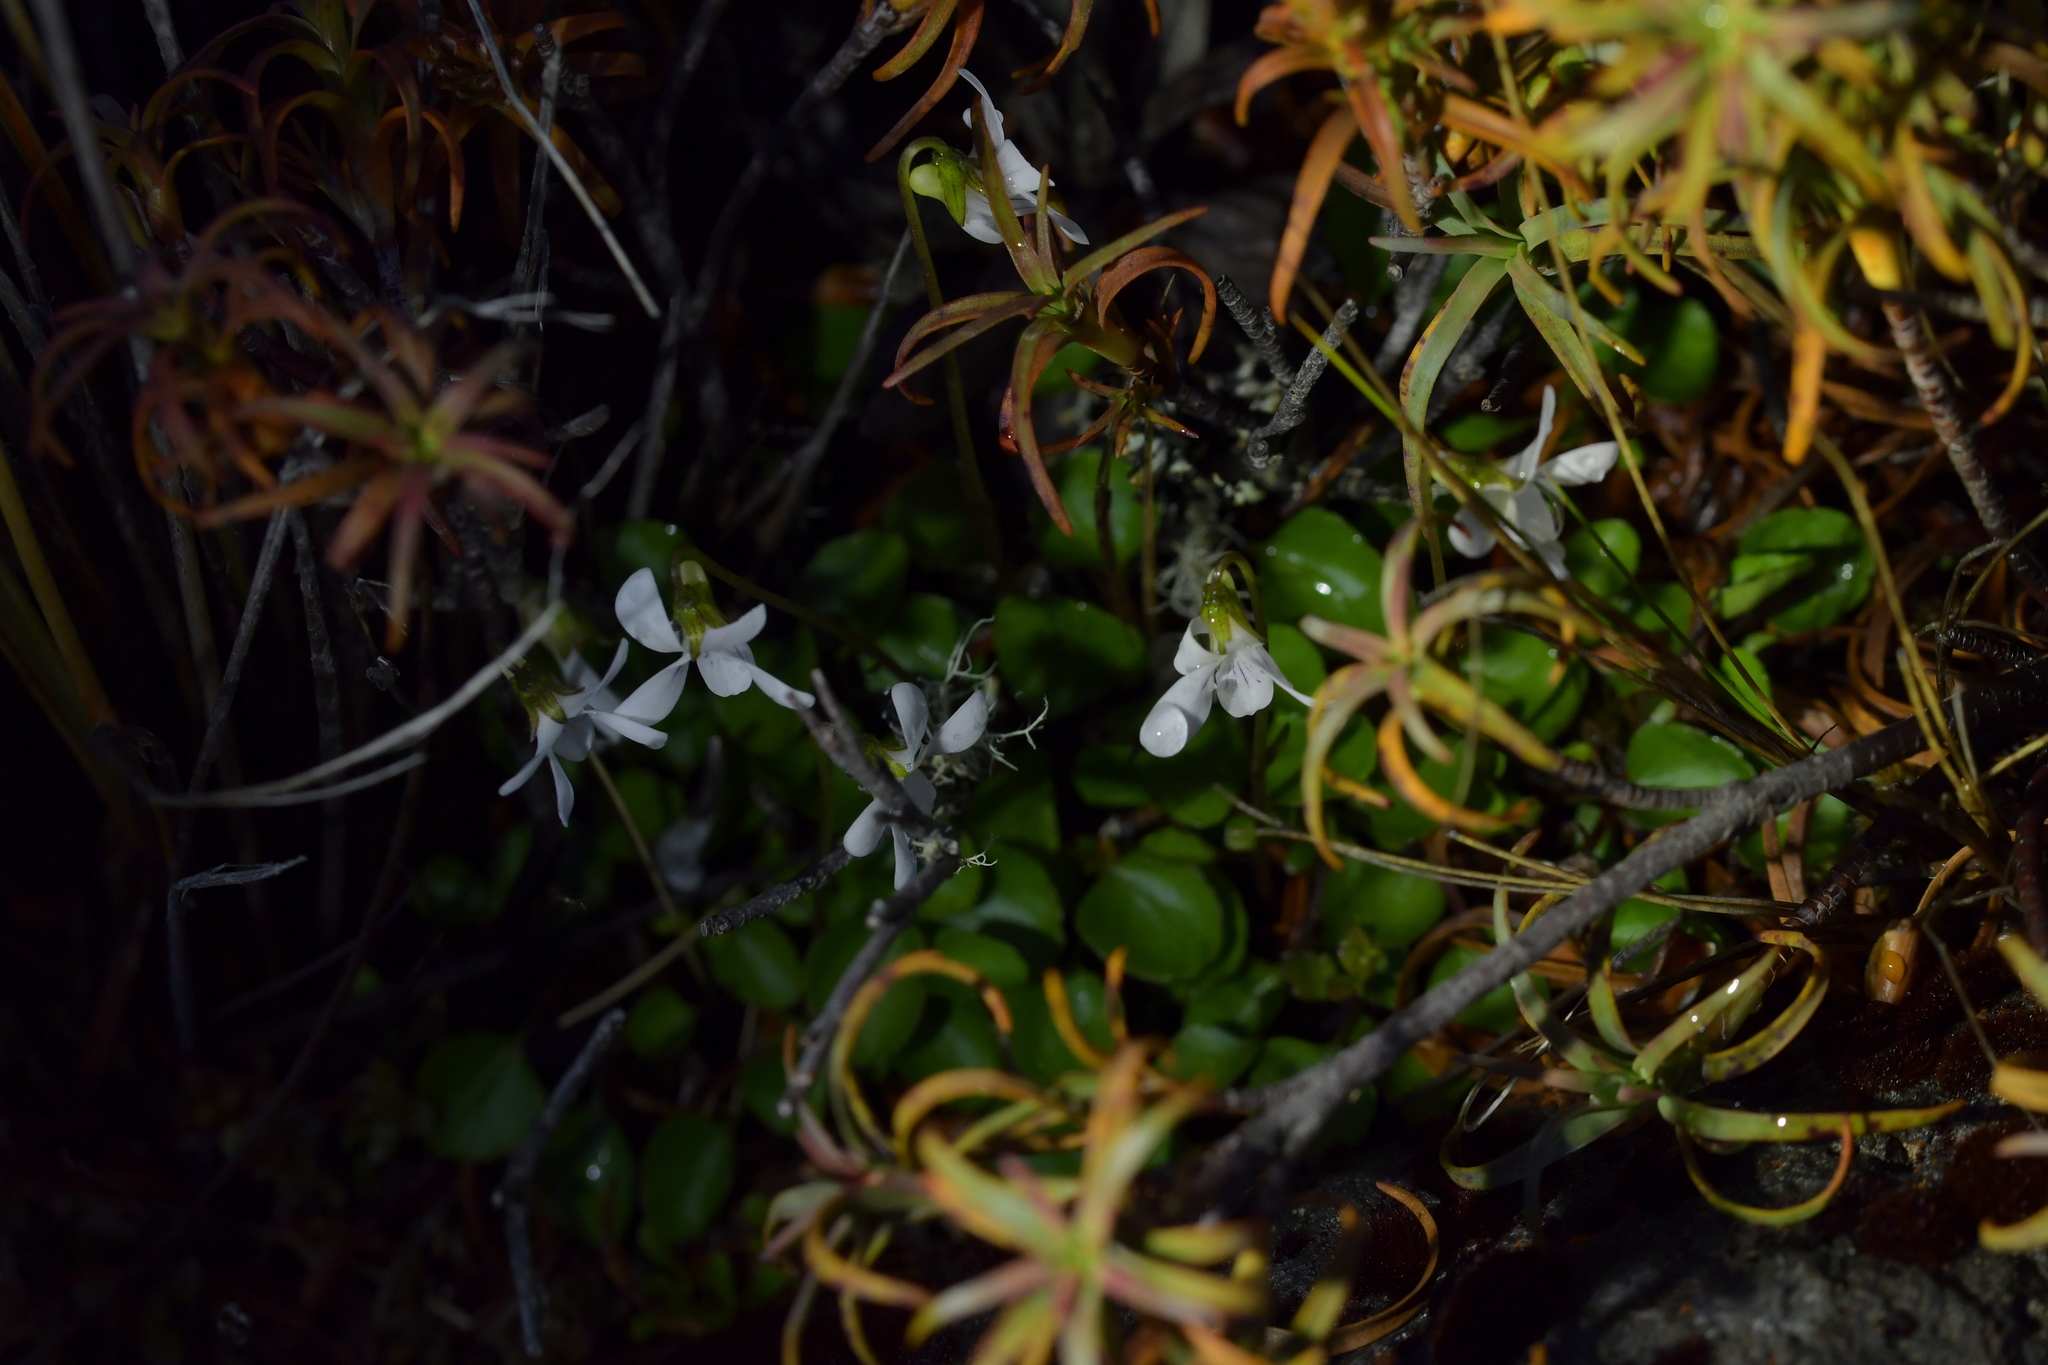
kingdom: Plantae
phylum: Tracheophyta
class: Magnoliopsida
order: Malpighiales
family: Violaceae
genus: Viola
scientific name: Viola cunninghamii
